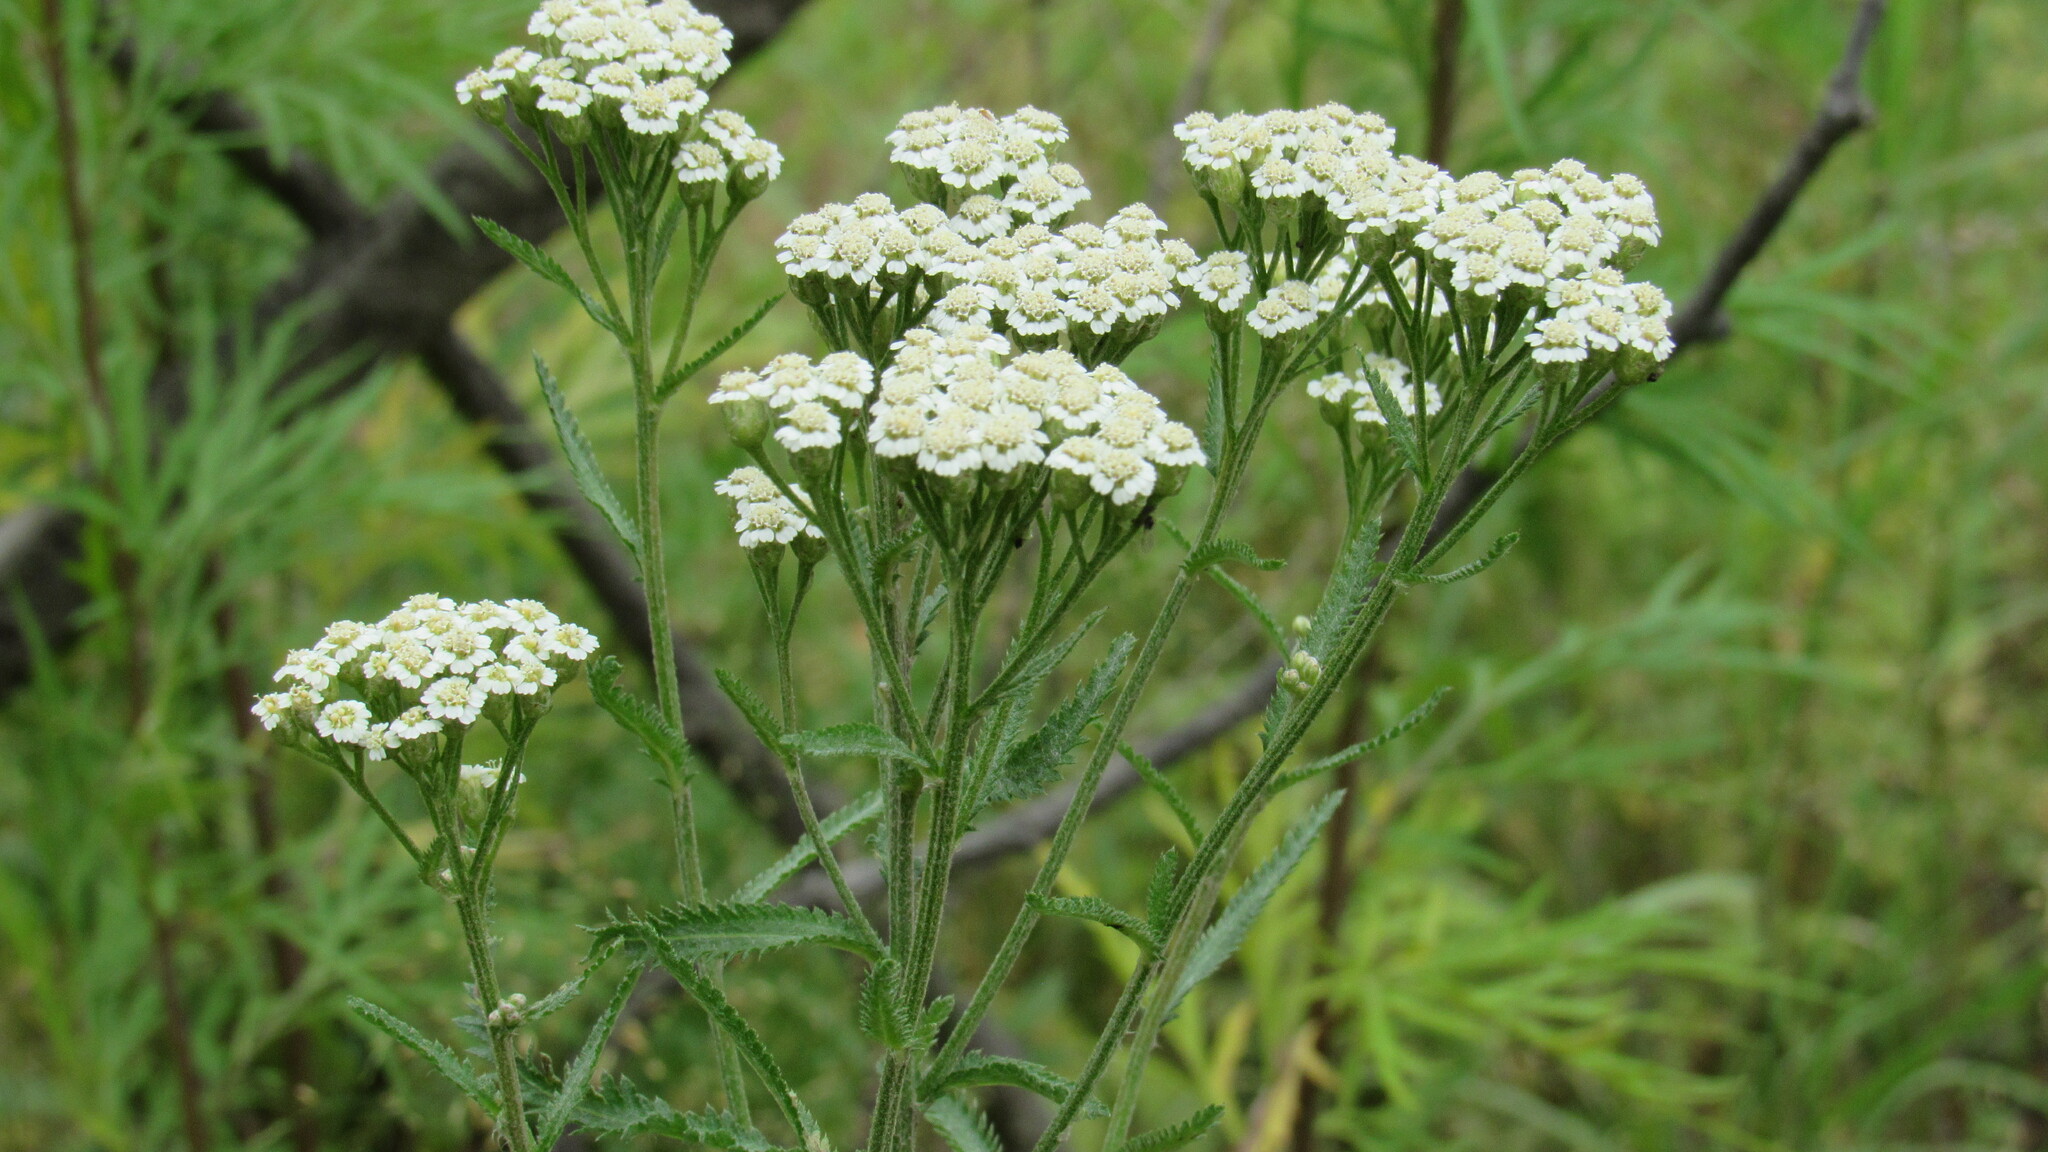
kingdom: Plantae
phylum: Tracheophyta
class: Magnoliopsida
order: Asterales
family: Asteraceae
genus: Achillea
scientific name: Achillea millefolium
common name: Yarrow
